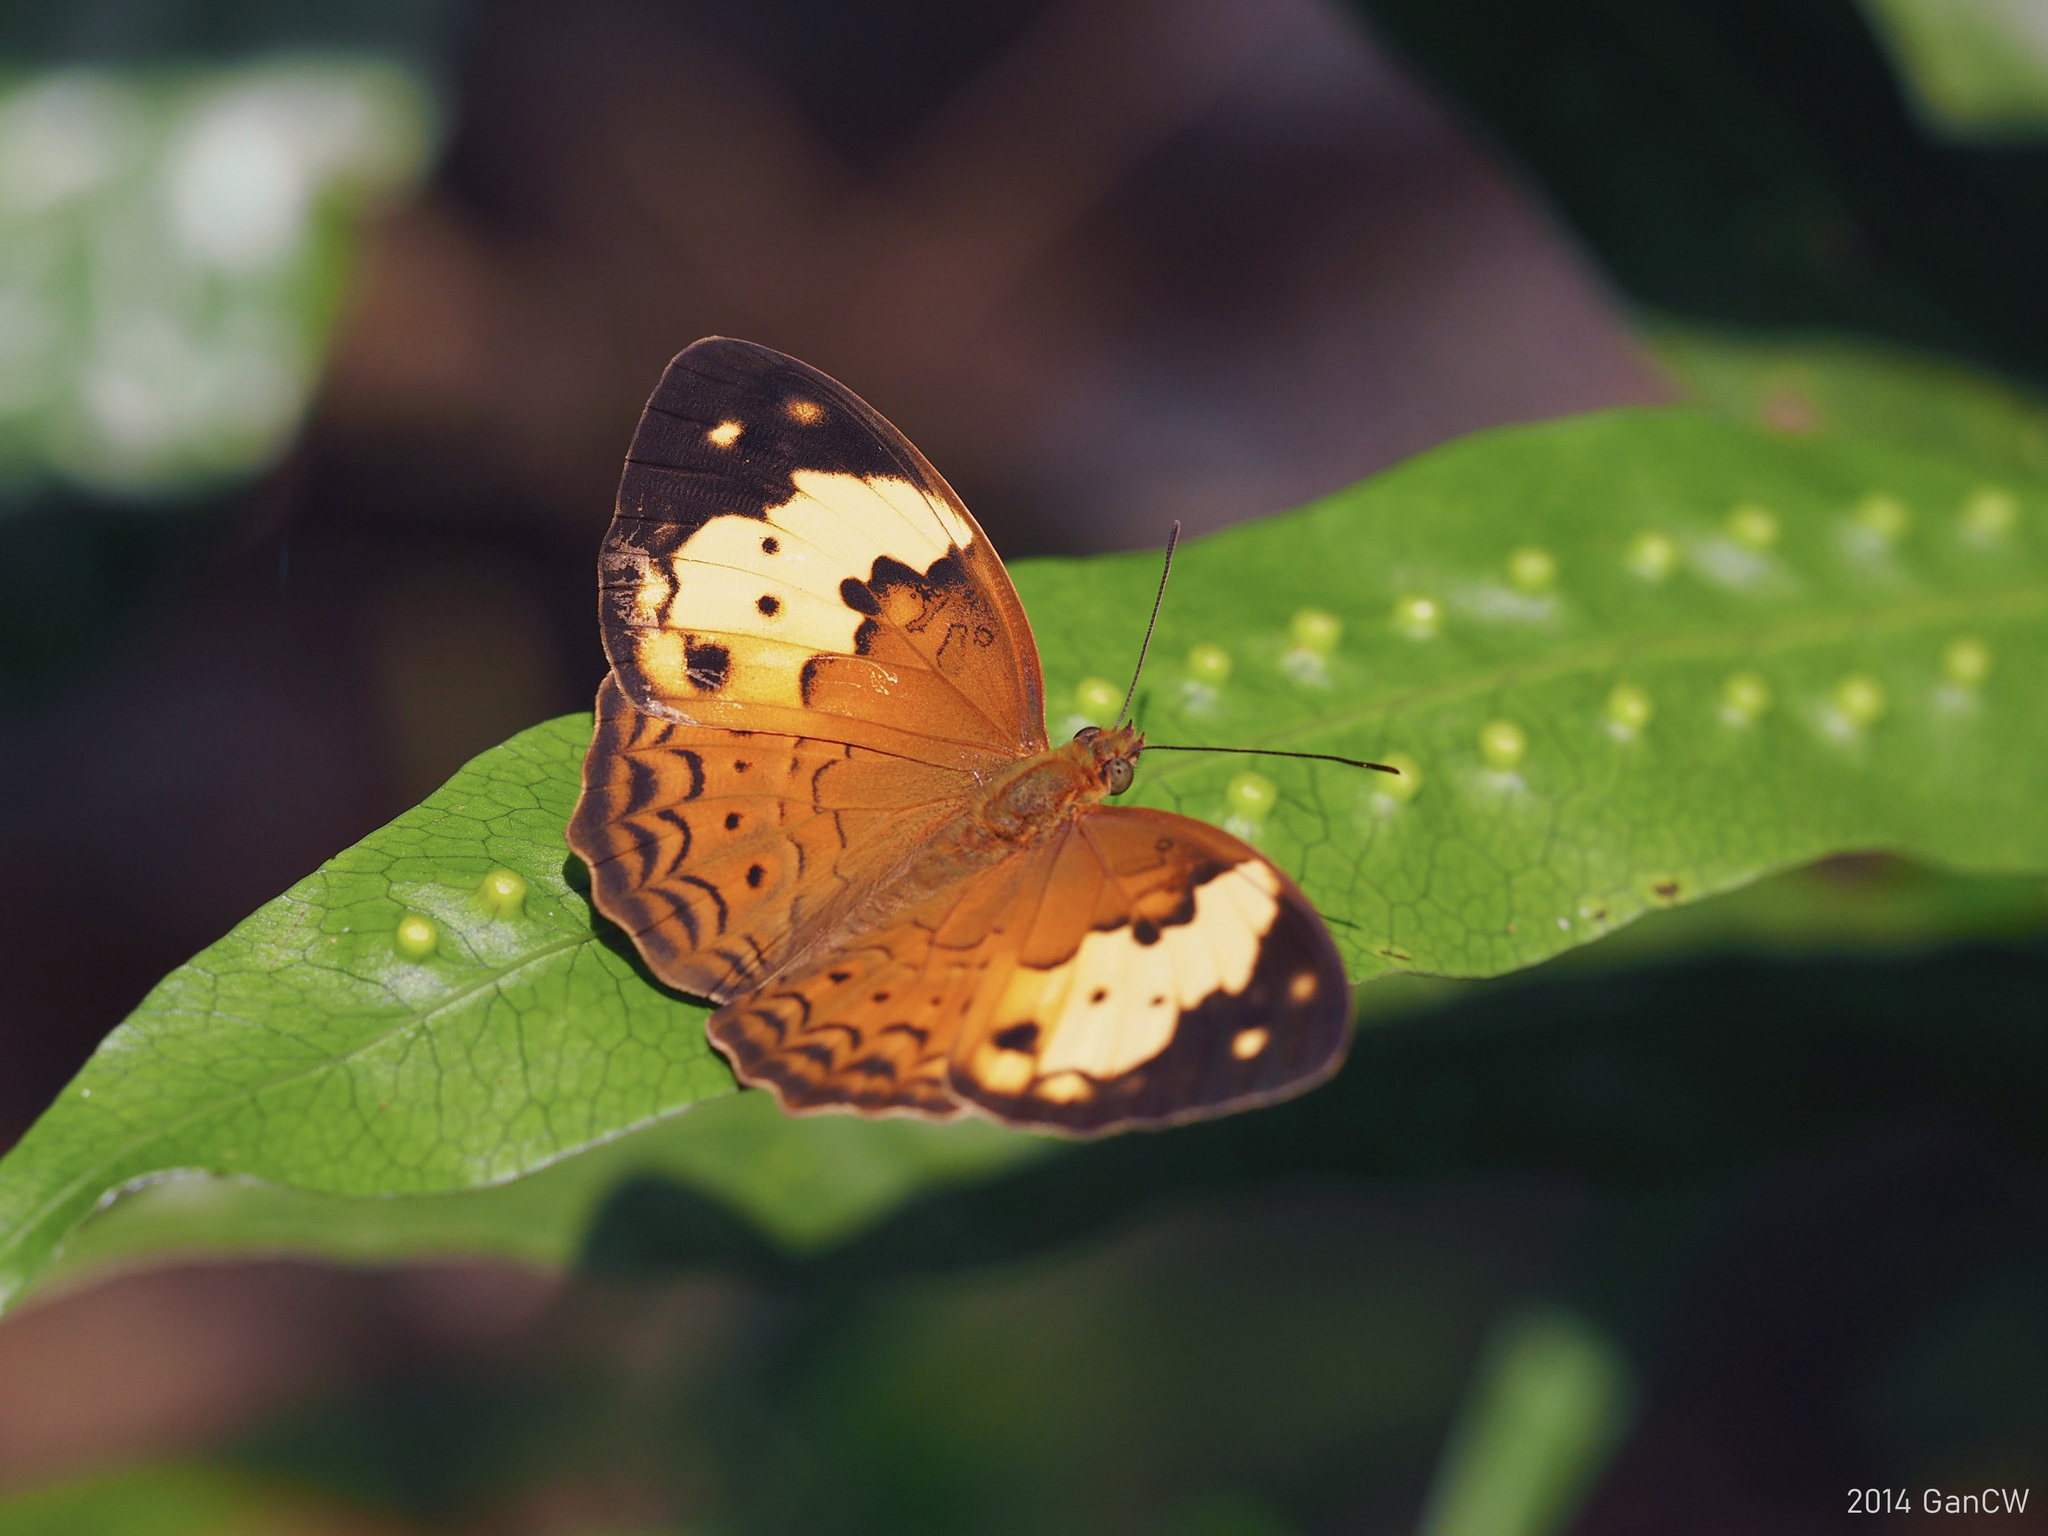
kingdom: Animalia
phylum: Arthropoda
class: Insecta
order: Lepidoptera
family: Nymphalidae
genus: Cupha
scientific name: Cupha erymanthis
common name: Rustic
